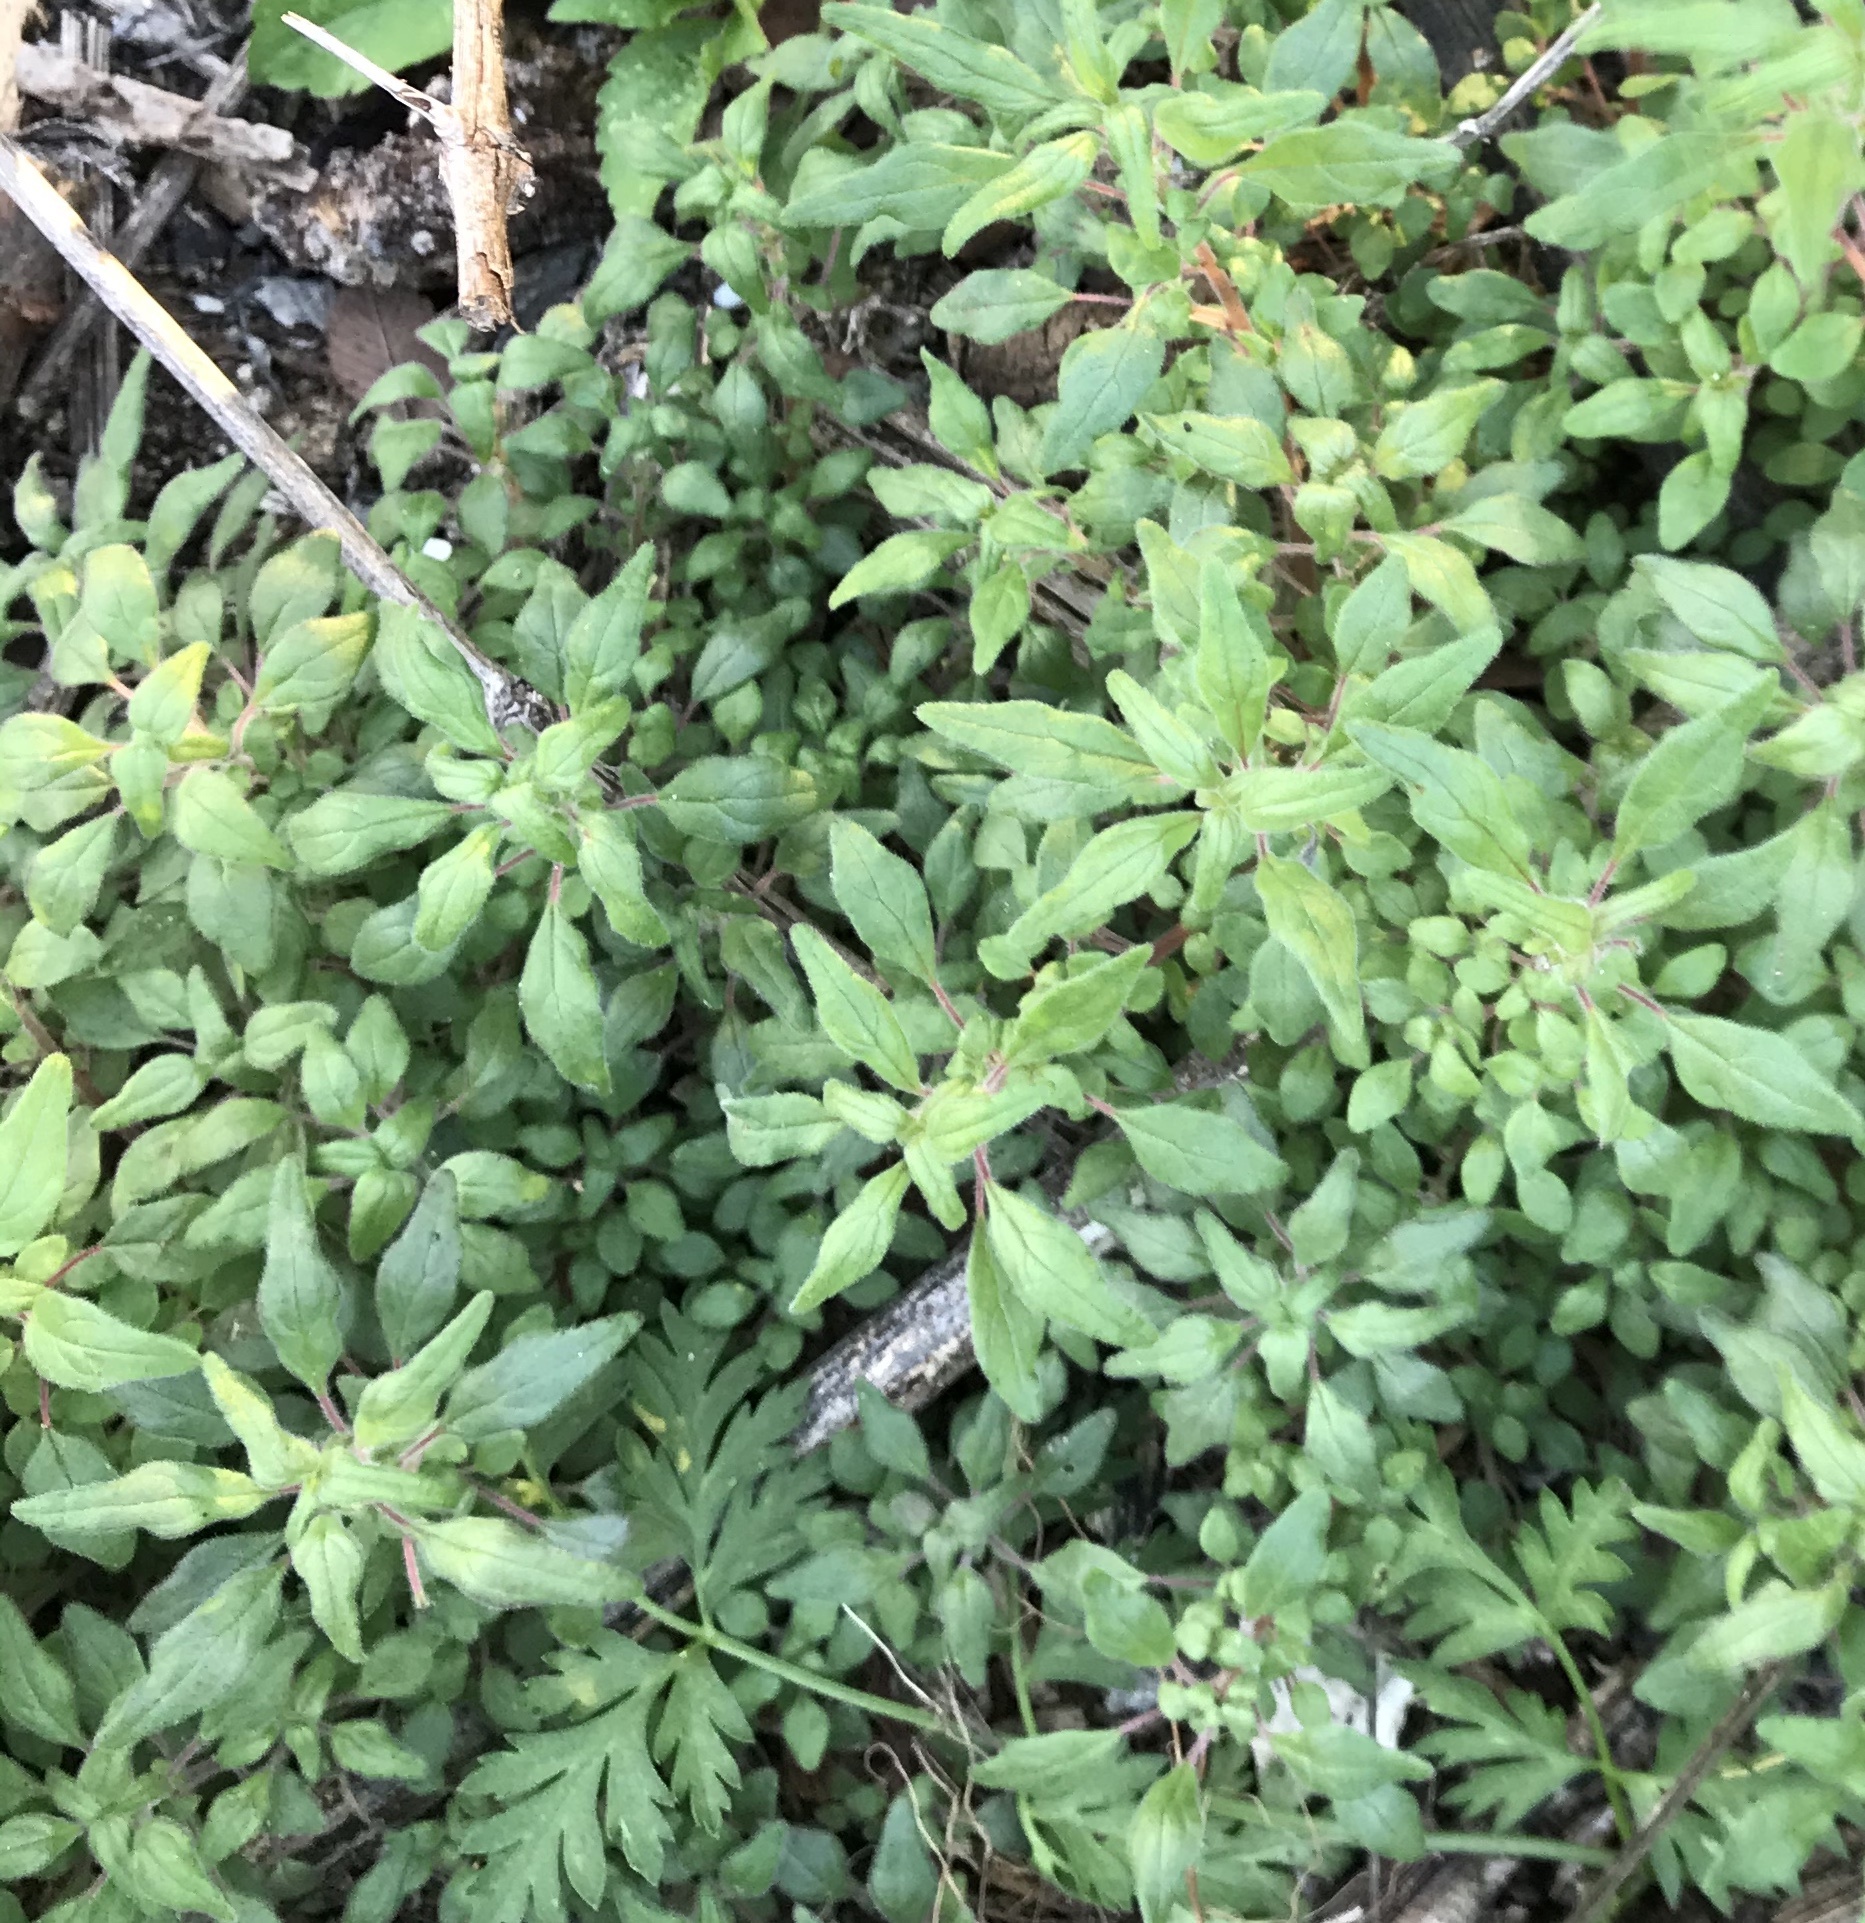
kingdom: Plantae
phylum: Tracheophyta
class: Magnoliopsida
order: Rosales
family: Urticaceae
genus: Parietaria
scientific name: Parietaria pensylvanica
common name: Pennsylvania pellitory
